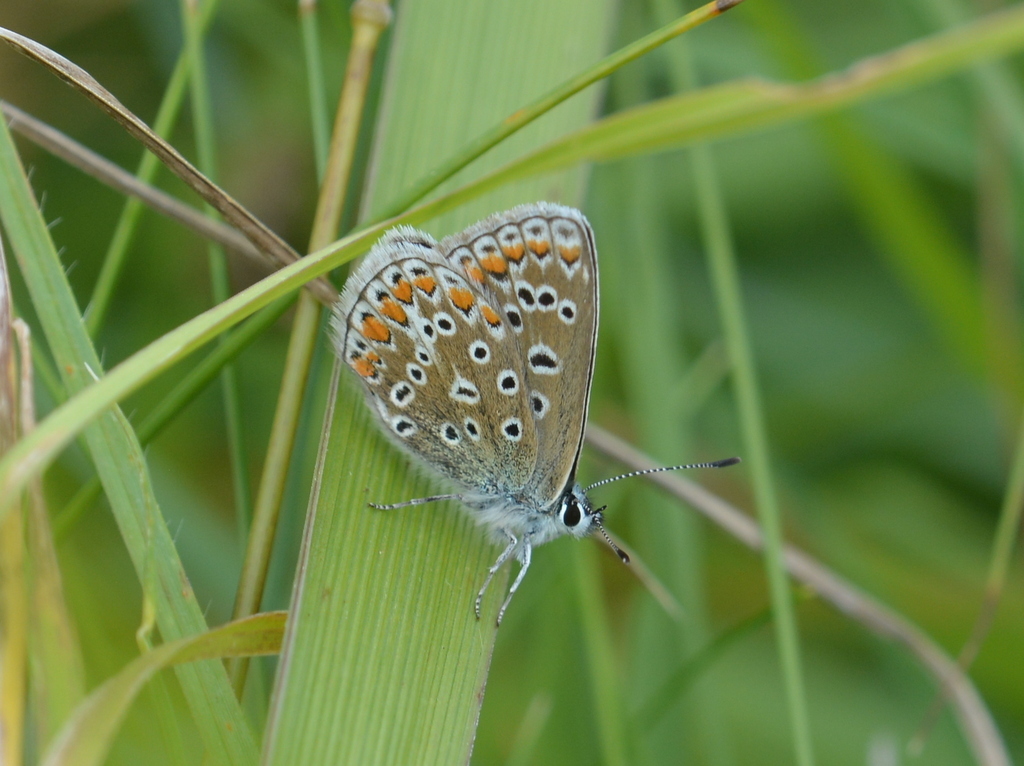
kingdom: Animalia
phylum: Arthropoda
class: Insecta
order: Lepidoptera
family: Lycaenidae
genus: Polyommatus
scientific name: Polyommatus icarus
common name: Common blue
